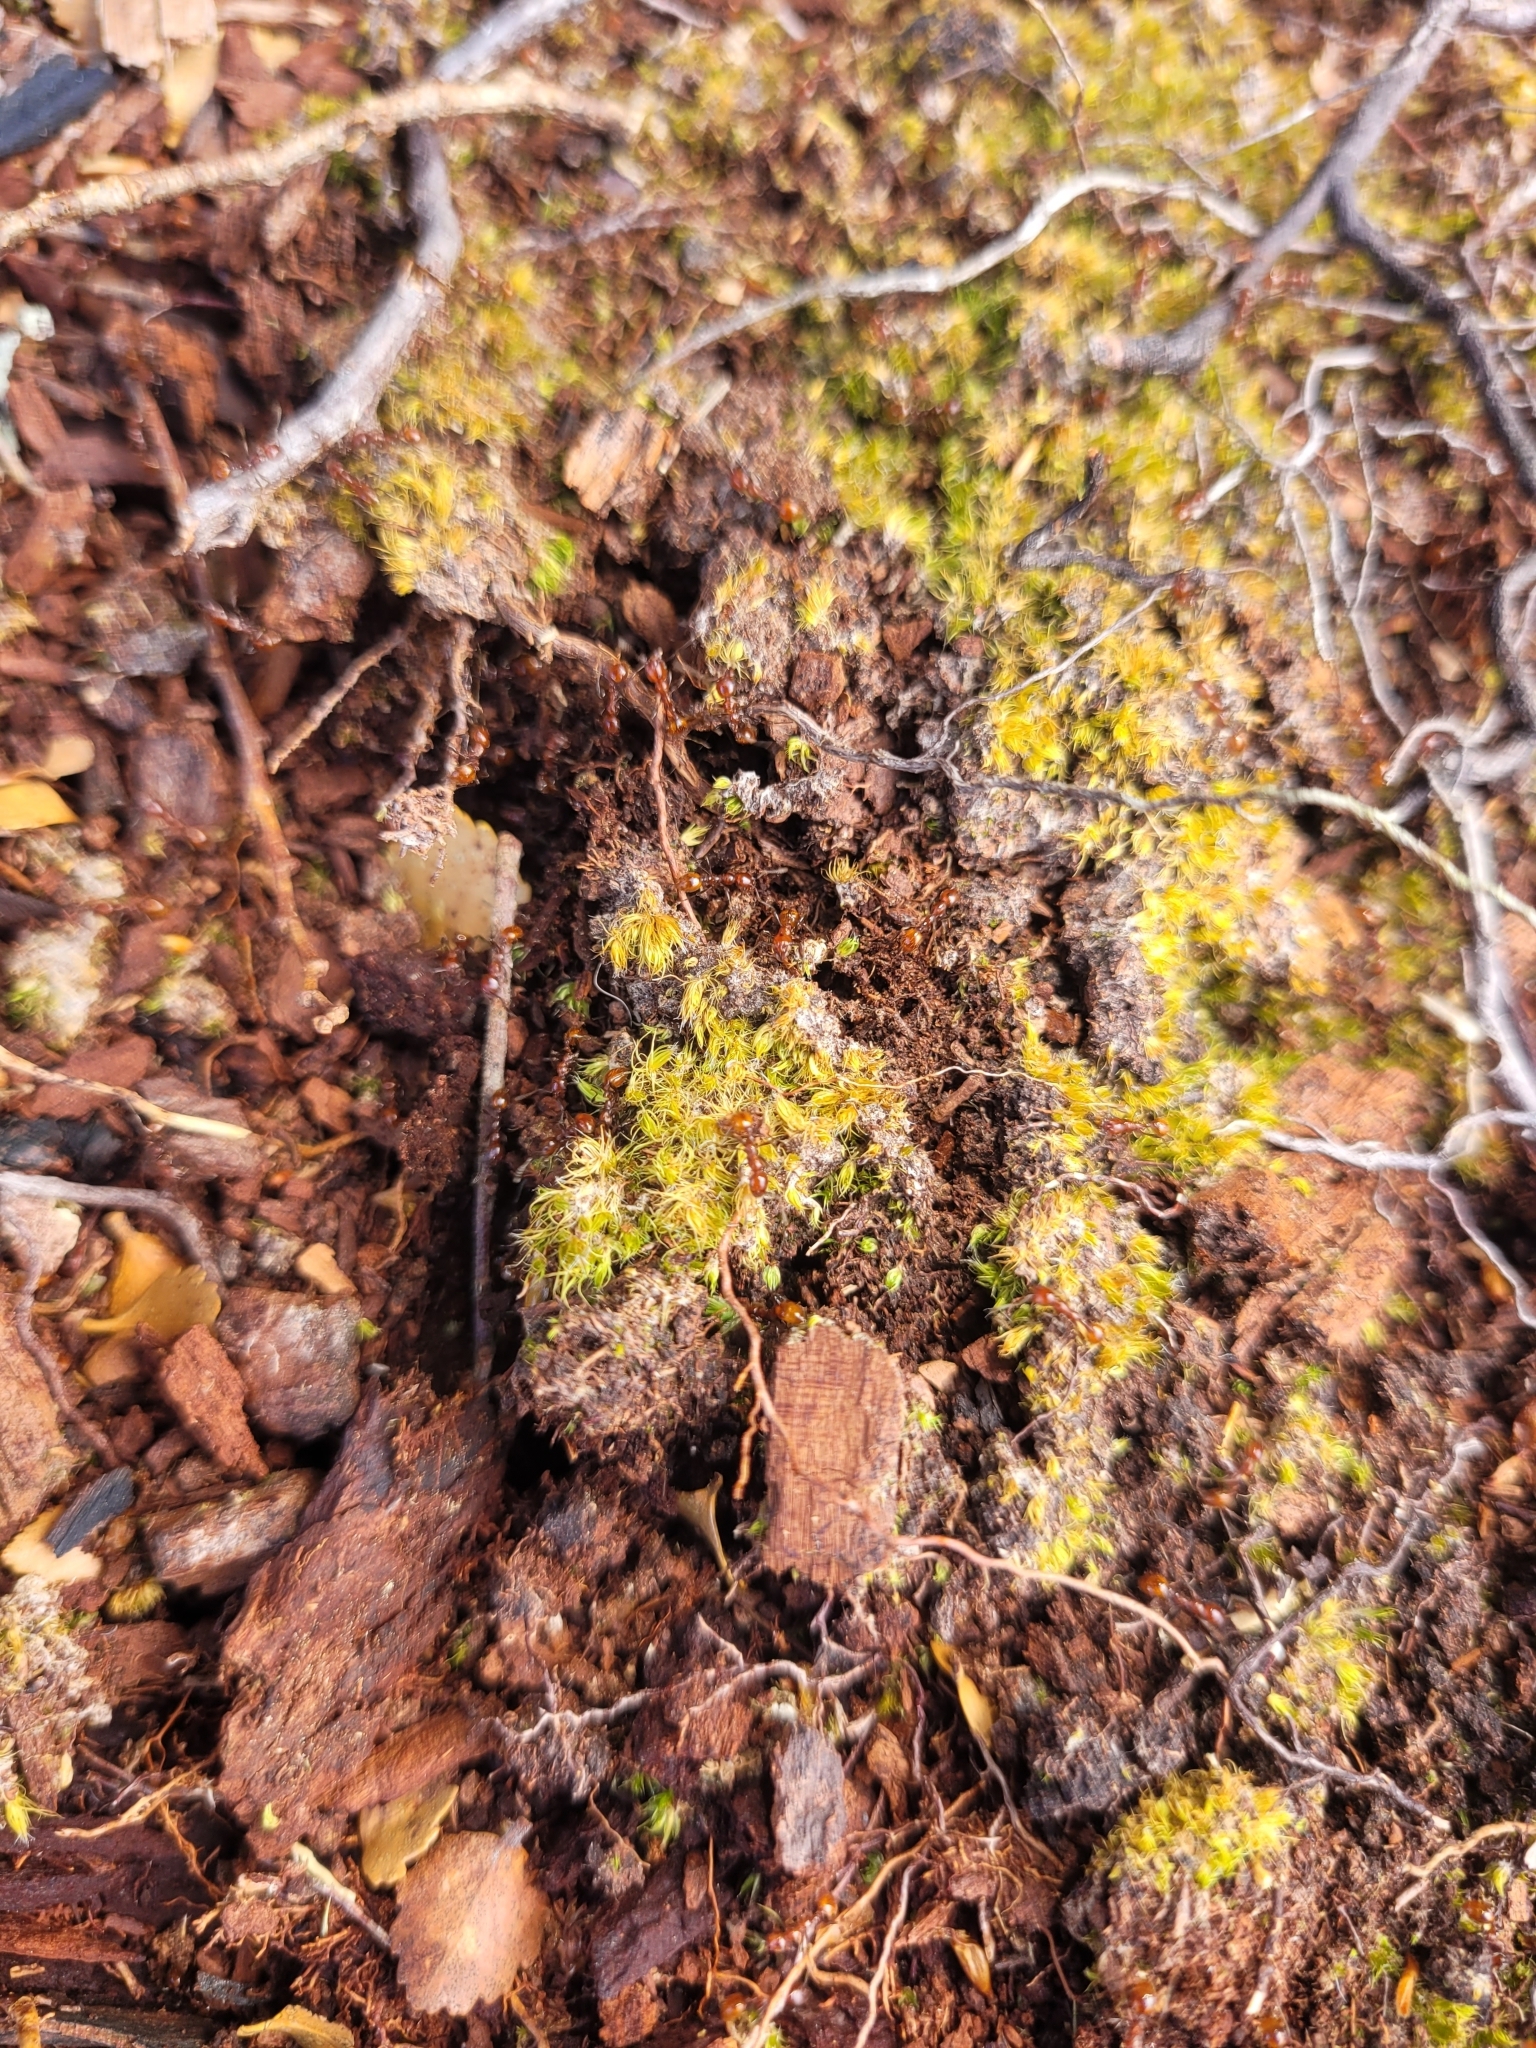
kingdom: Animalia
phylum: Arthropoda
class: Insecta
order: Hymenoptera
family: Formicidae
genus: Monomorium
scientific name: Monomorium antarcticum
